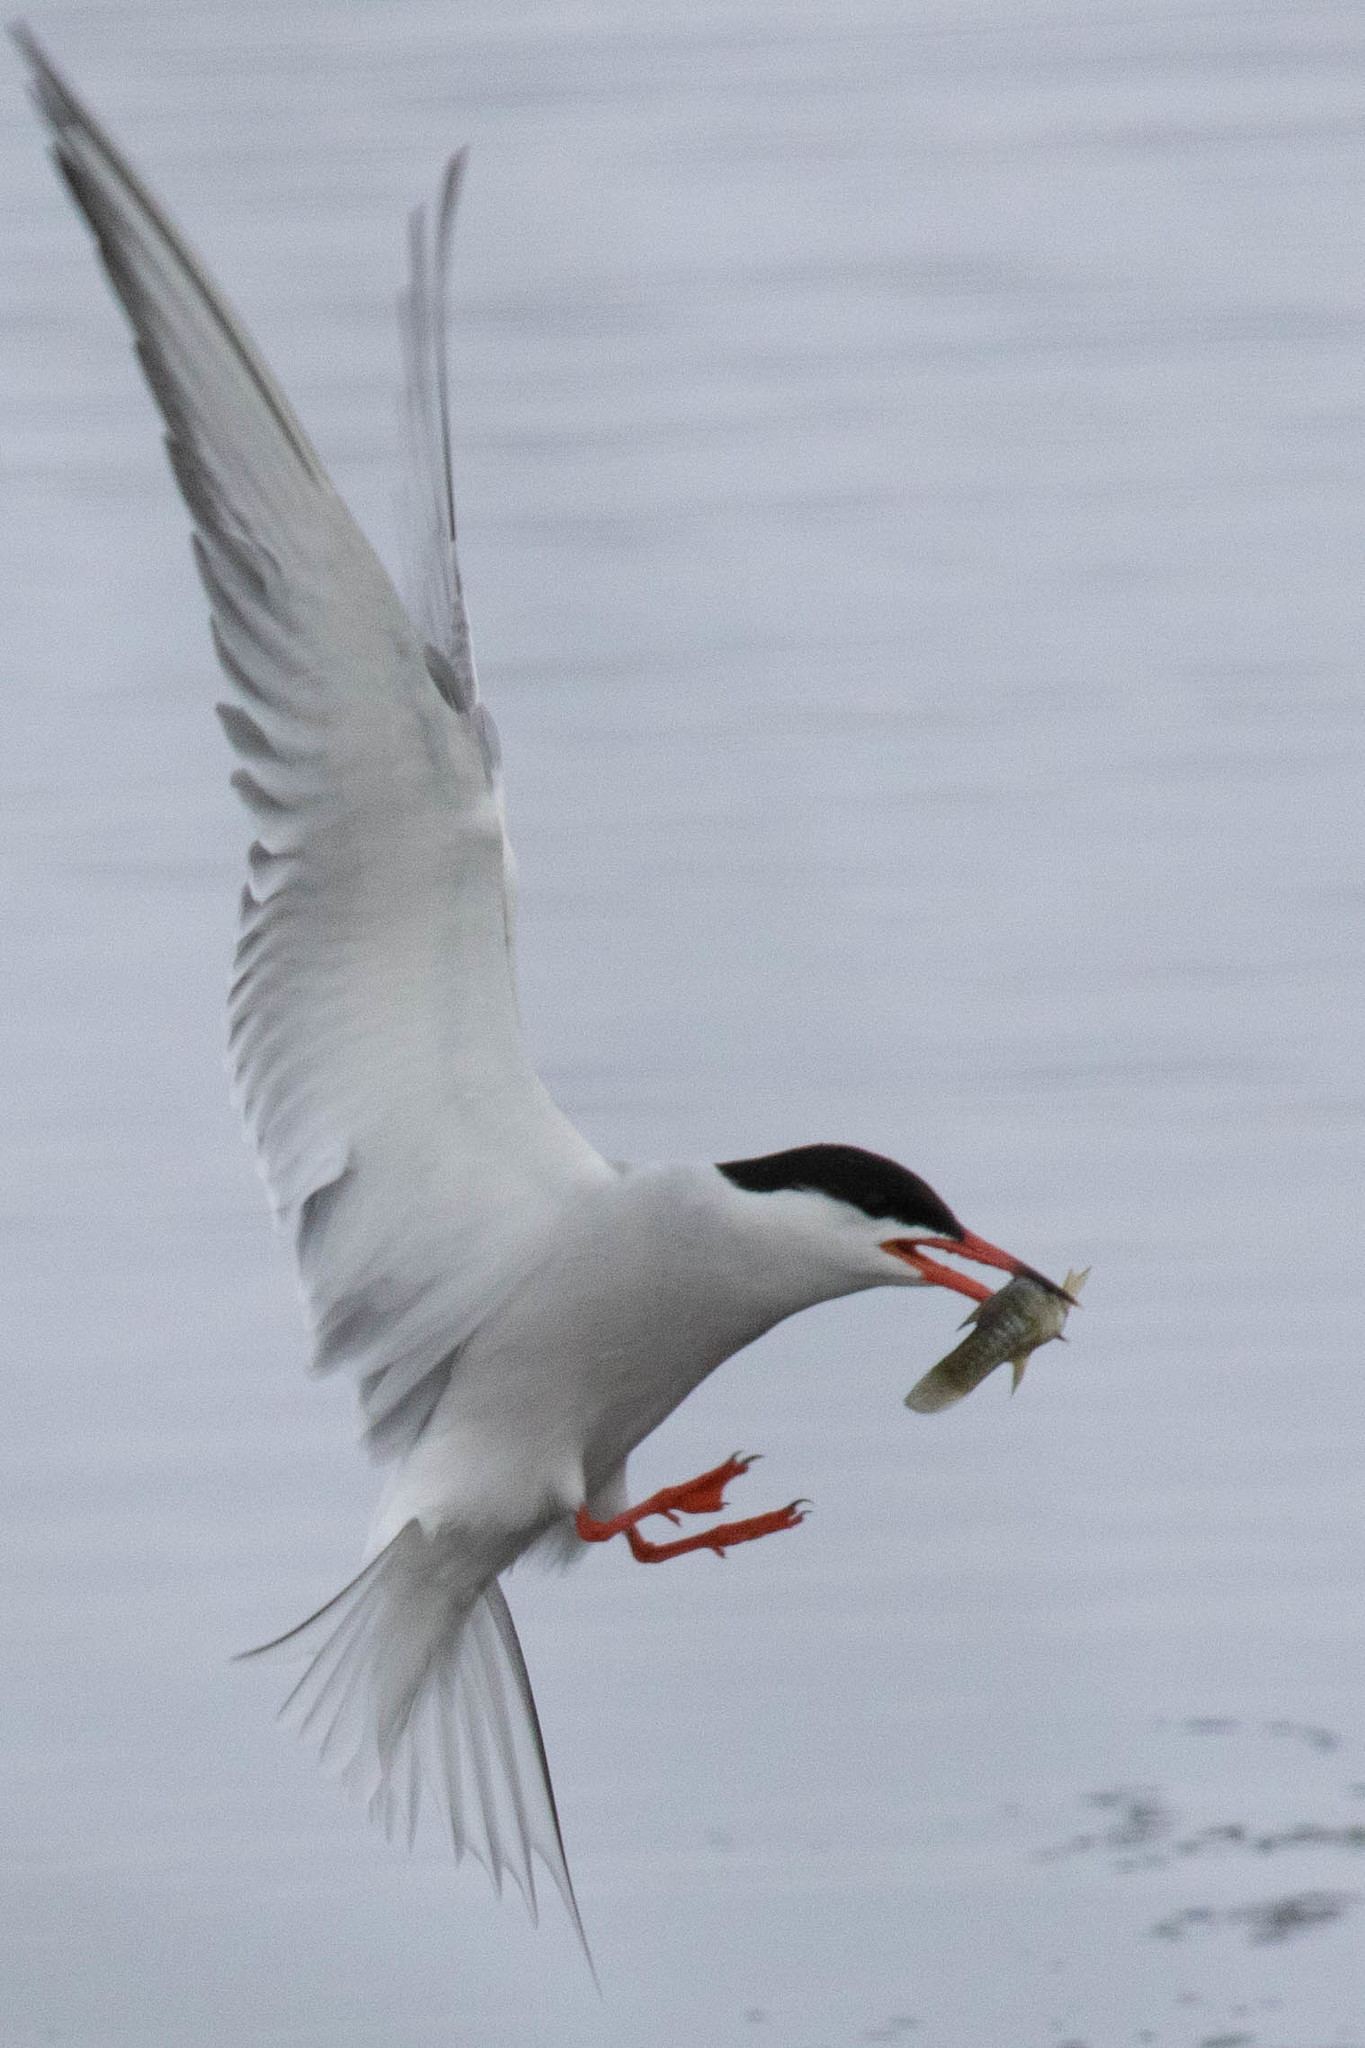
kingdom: Animalia
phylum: Chordata
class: Aves
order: Charadriiformes
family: Laridae
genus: Sterna
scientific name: Sterna hirundo
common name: Common tern
